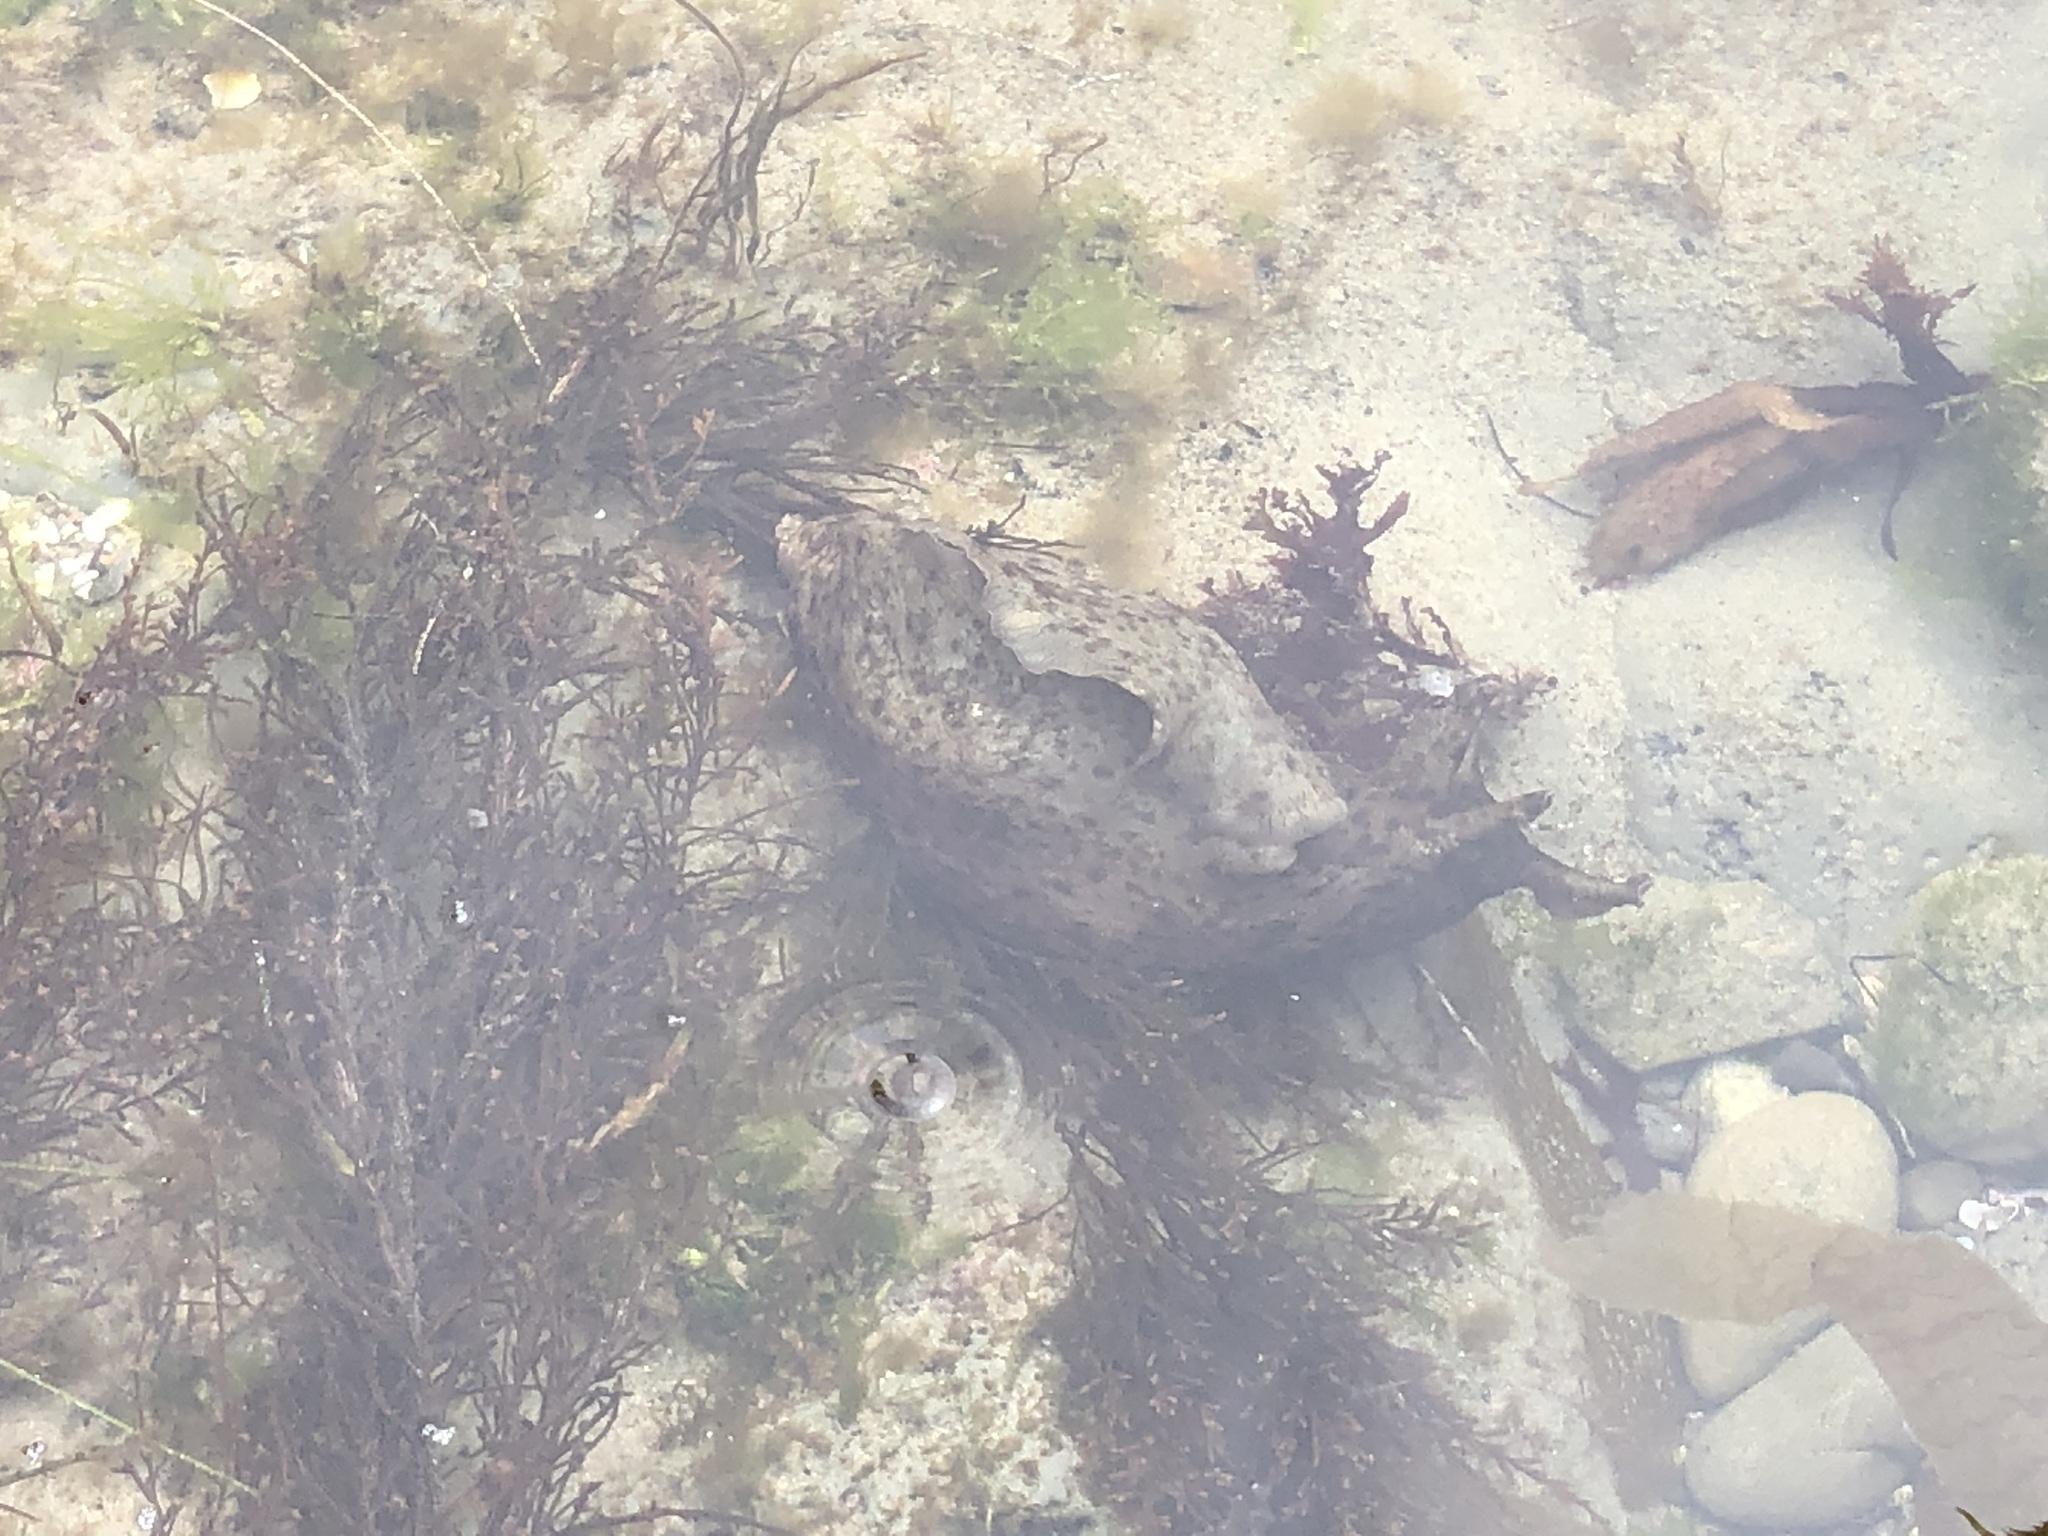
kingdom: Animalia
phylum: Mollusca
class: Gastropoda
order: Aplysiida
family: Aplysiidae
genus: Aplysia
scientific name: Aplysia californica
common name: California seahare
